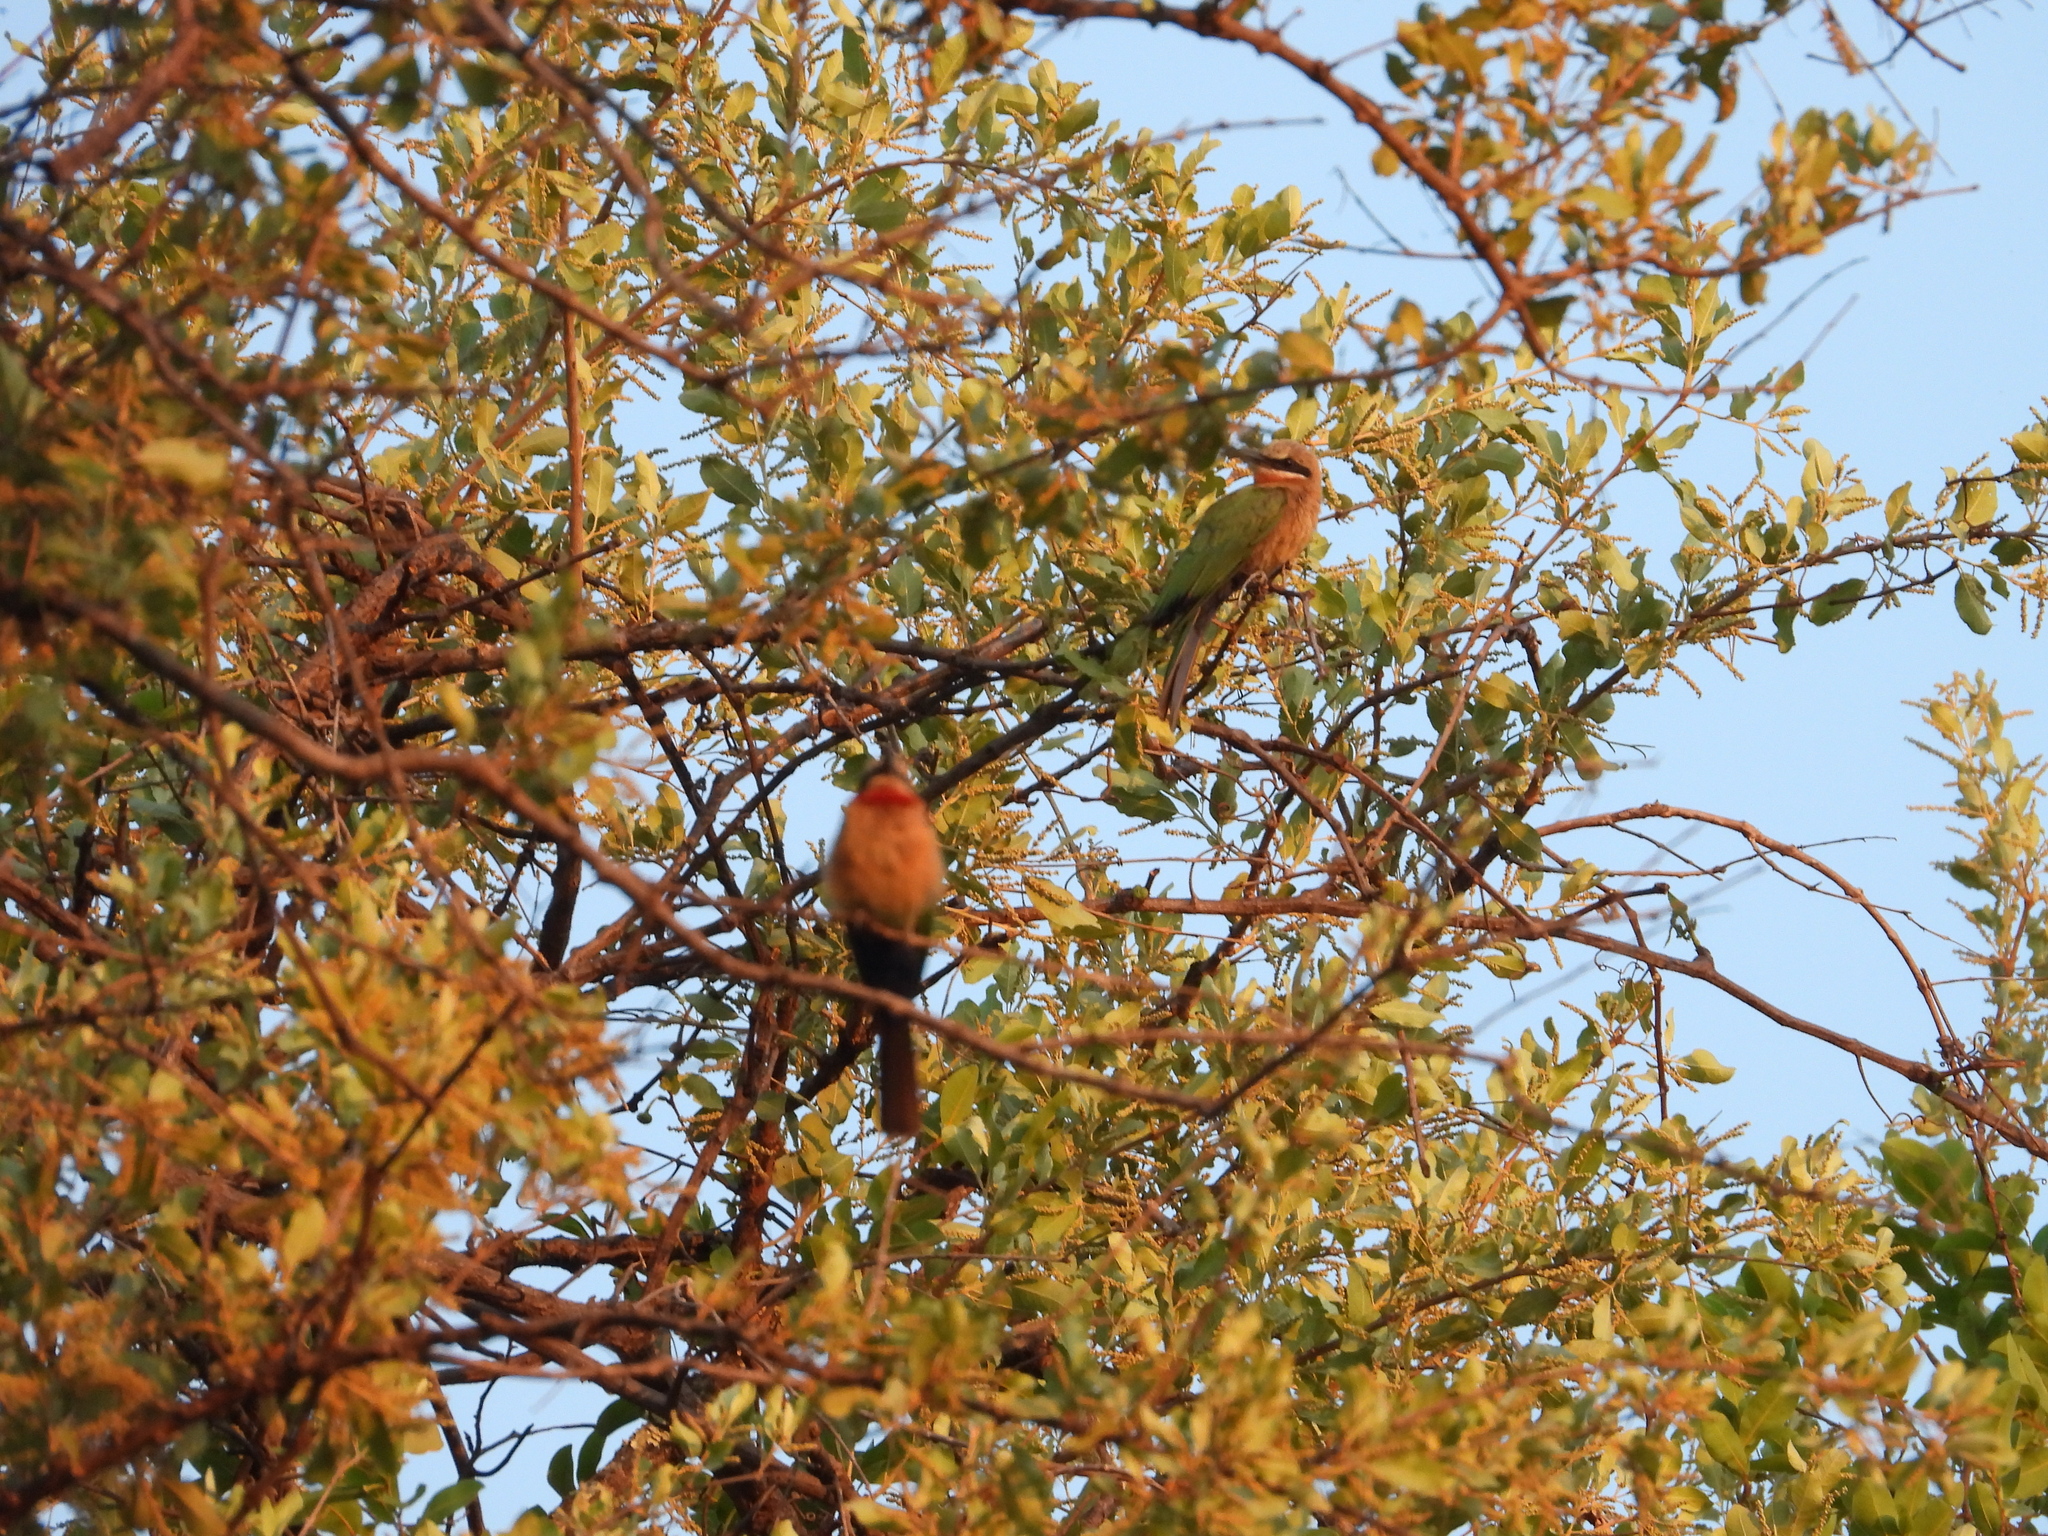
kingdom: Animalia
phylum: Chordata
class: Aves
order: Coraciiformes
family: Meropidae
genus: Merops
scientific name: Merops bullockoides
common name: White-fronted bee-eater
